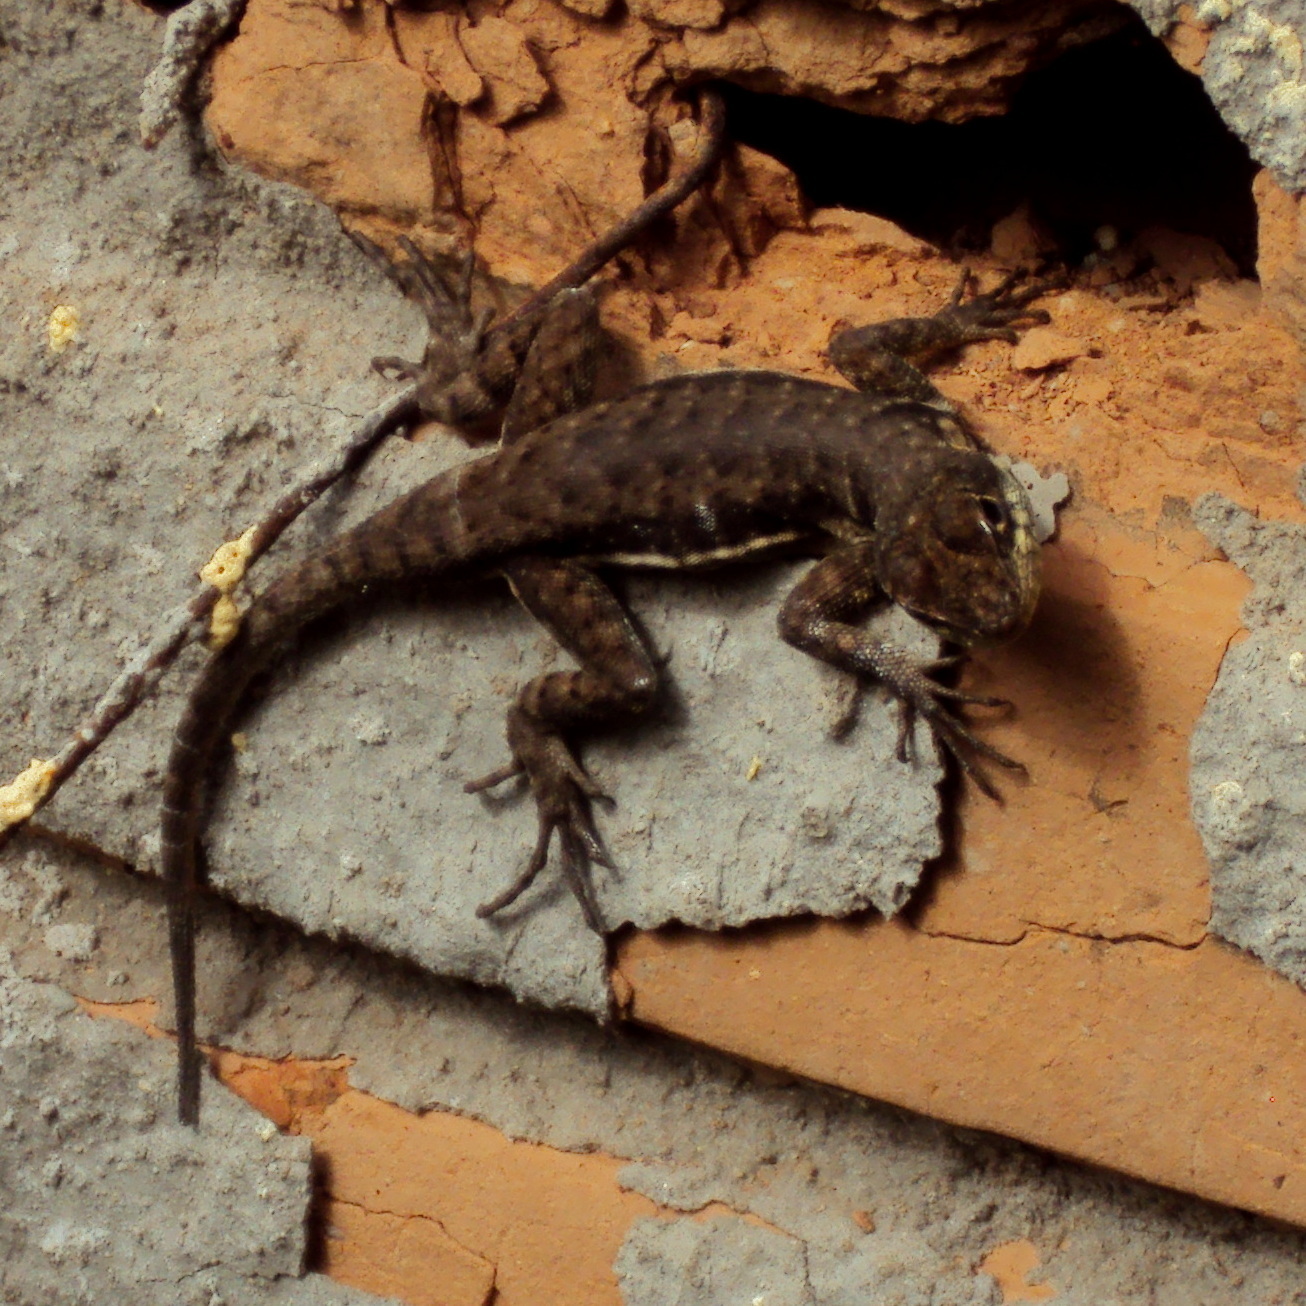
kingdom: Animalia
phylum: Chordata
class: Squamata
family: Tropiduridae
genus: Tropidurus
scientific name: Tropidurus catalanensis
